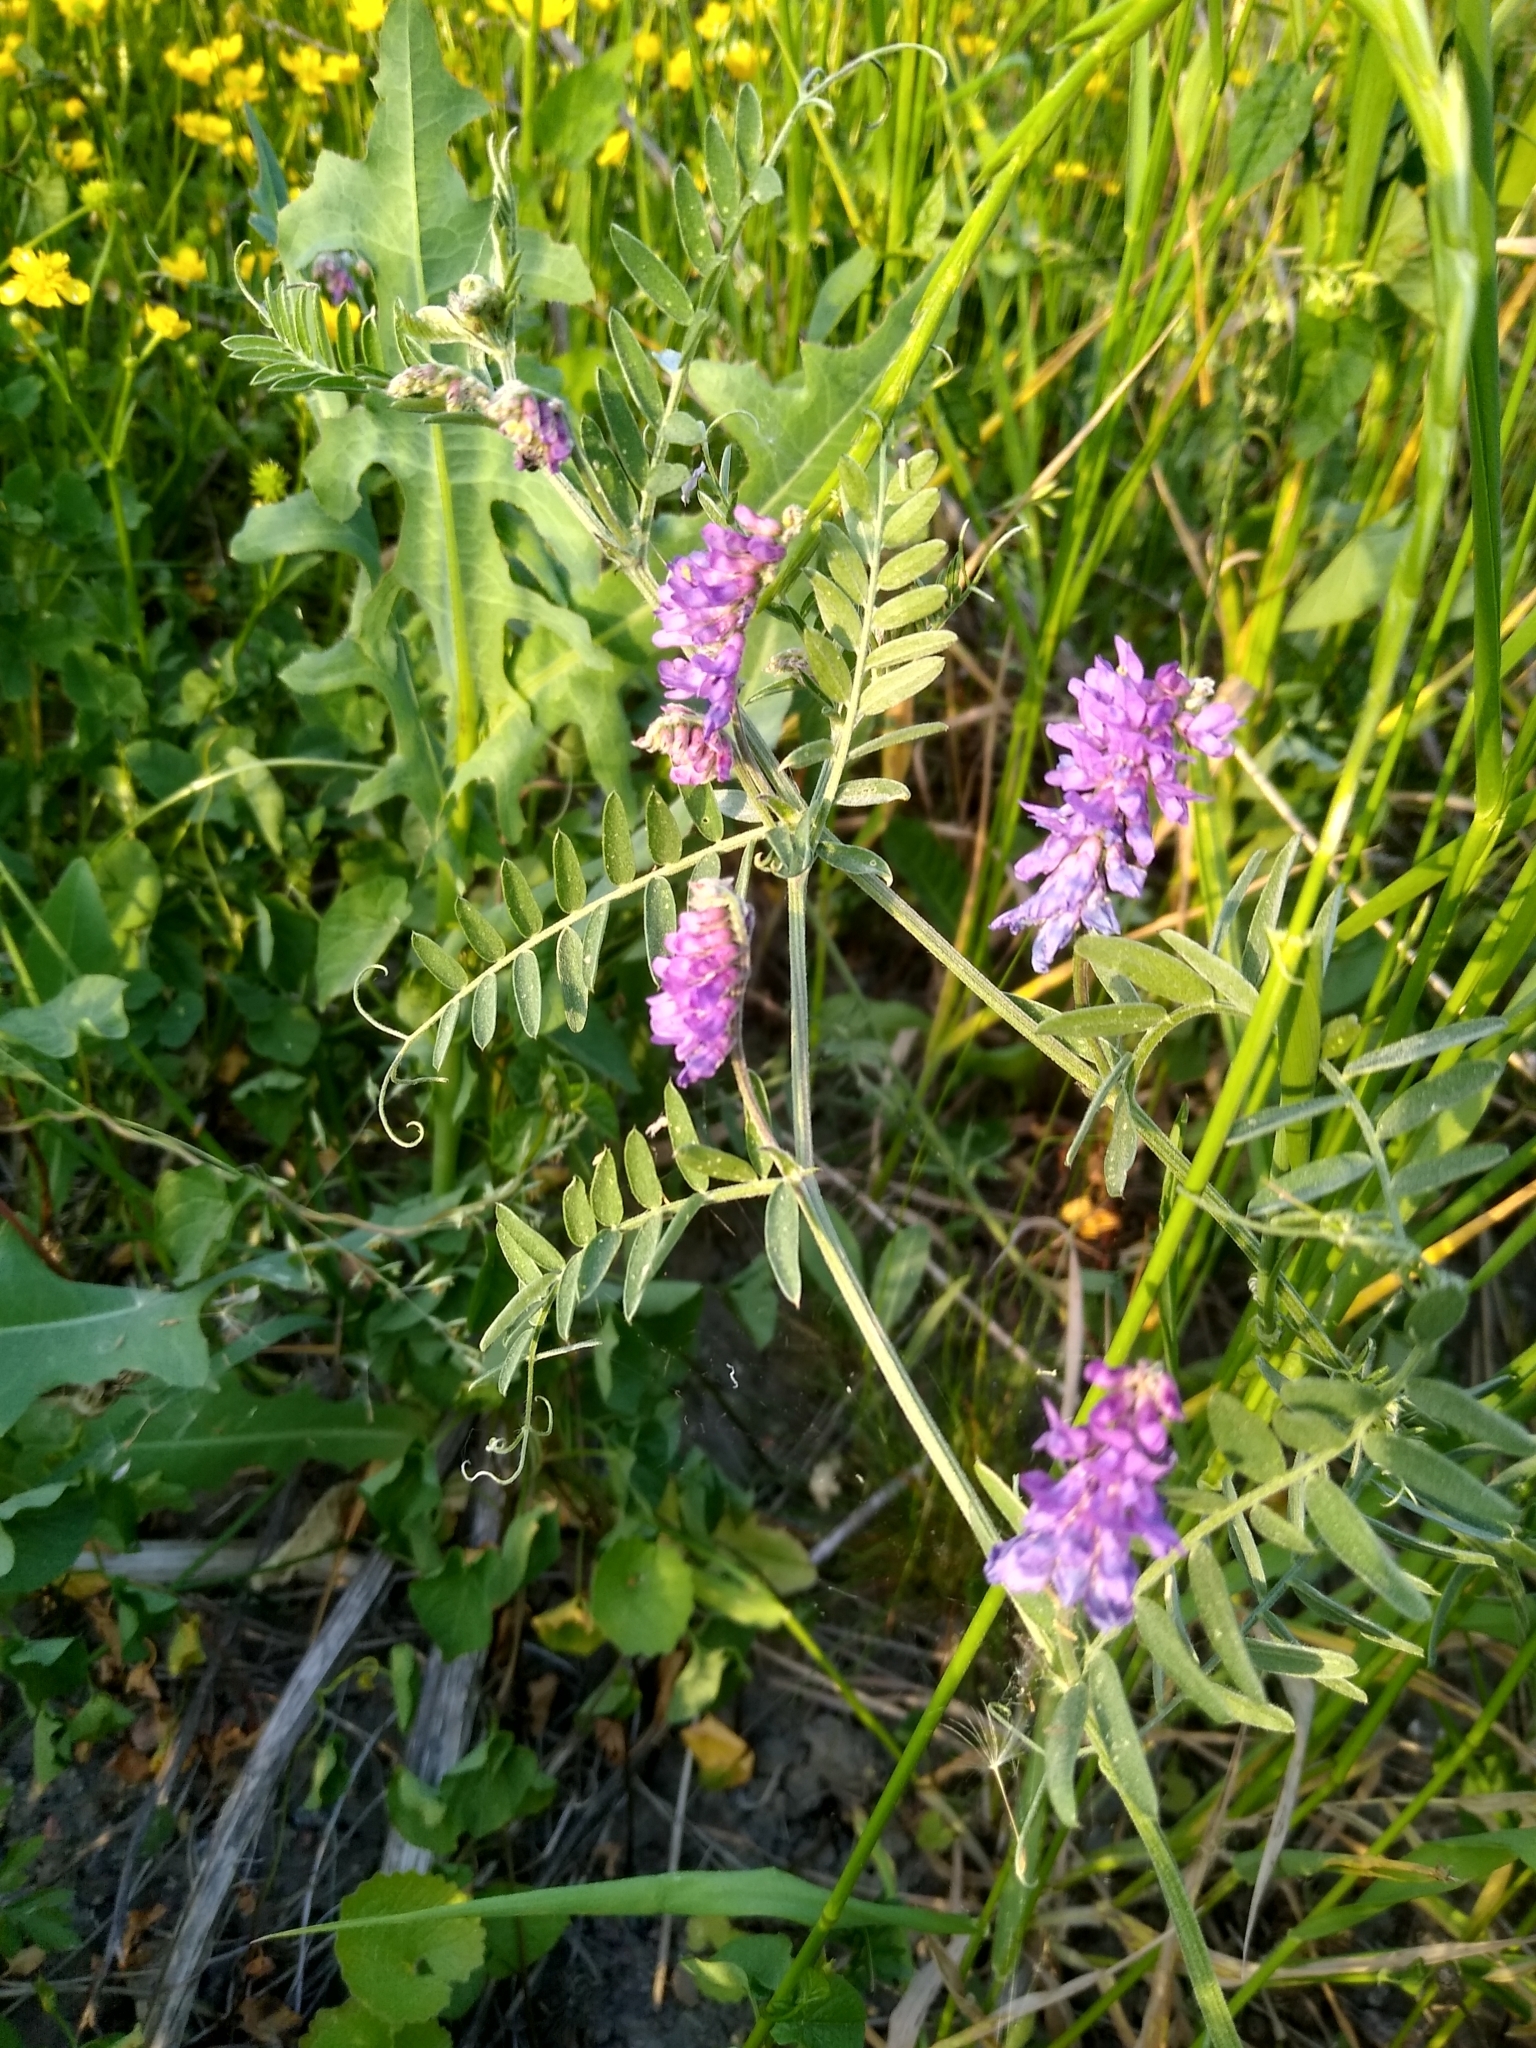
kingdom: Plantae
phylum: Tracheophyta
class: Magnoliopsida
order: Fabales
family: Fabaceae
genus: Vicia
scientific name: Vicia cracca
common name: Bird vetch
